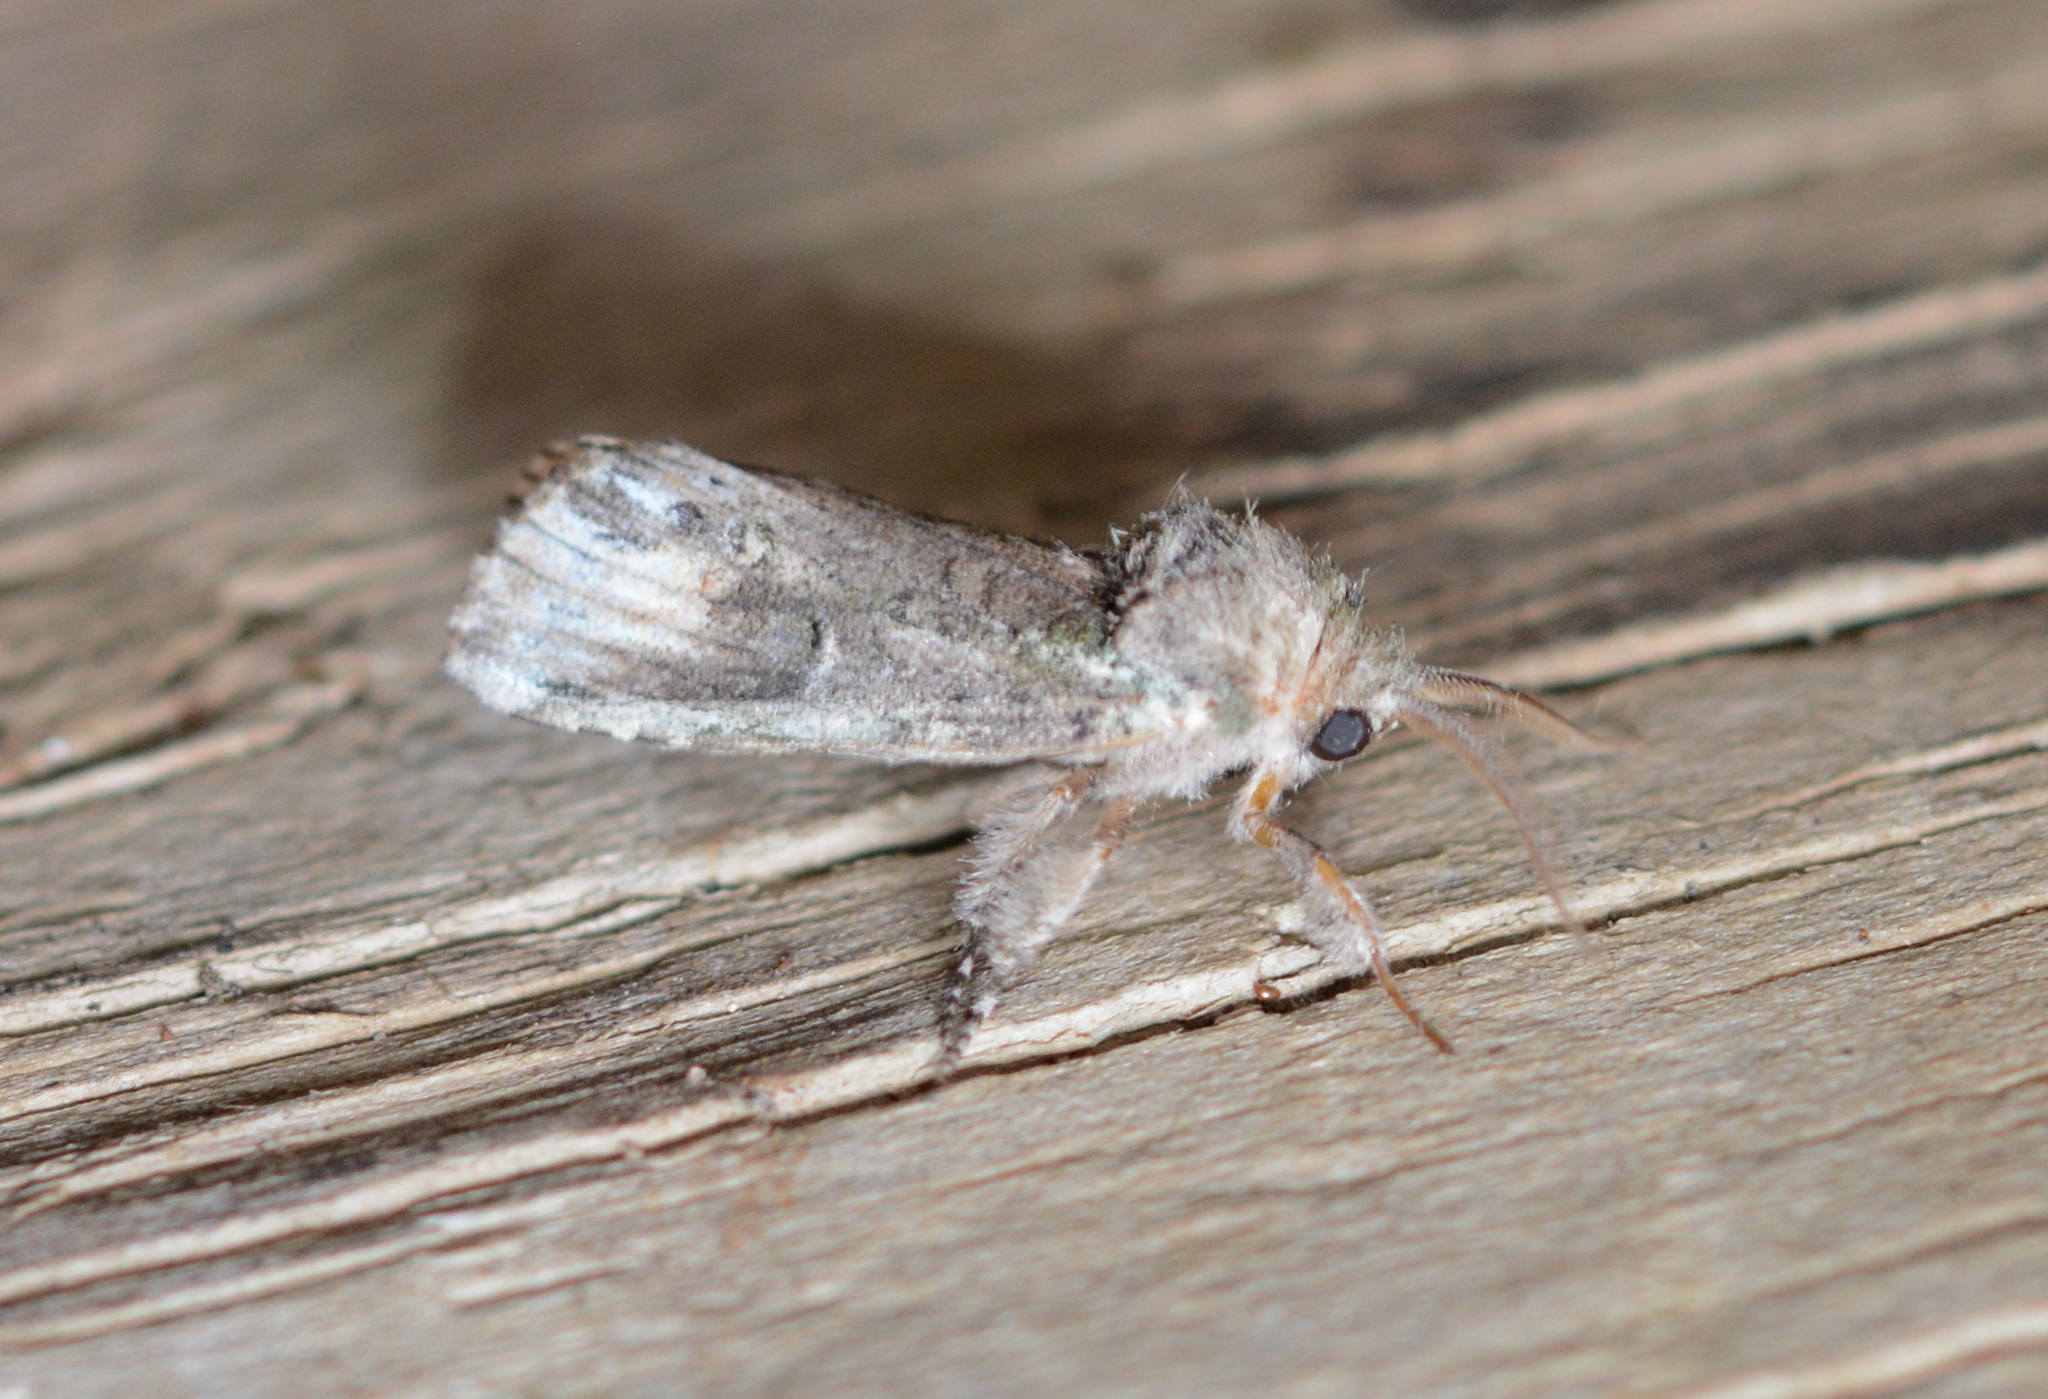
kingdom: Animalia
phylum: Arthropoda
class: Insecta
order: Lepidoptera
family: Notodontidae
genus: Schizura
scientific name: Schizura
